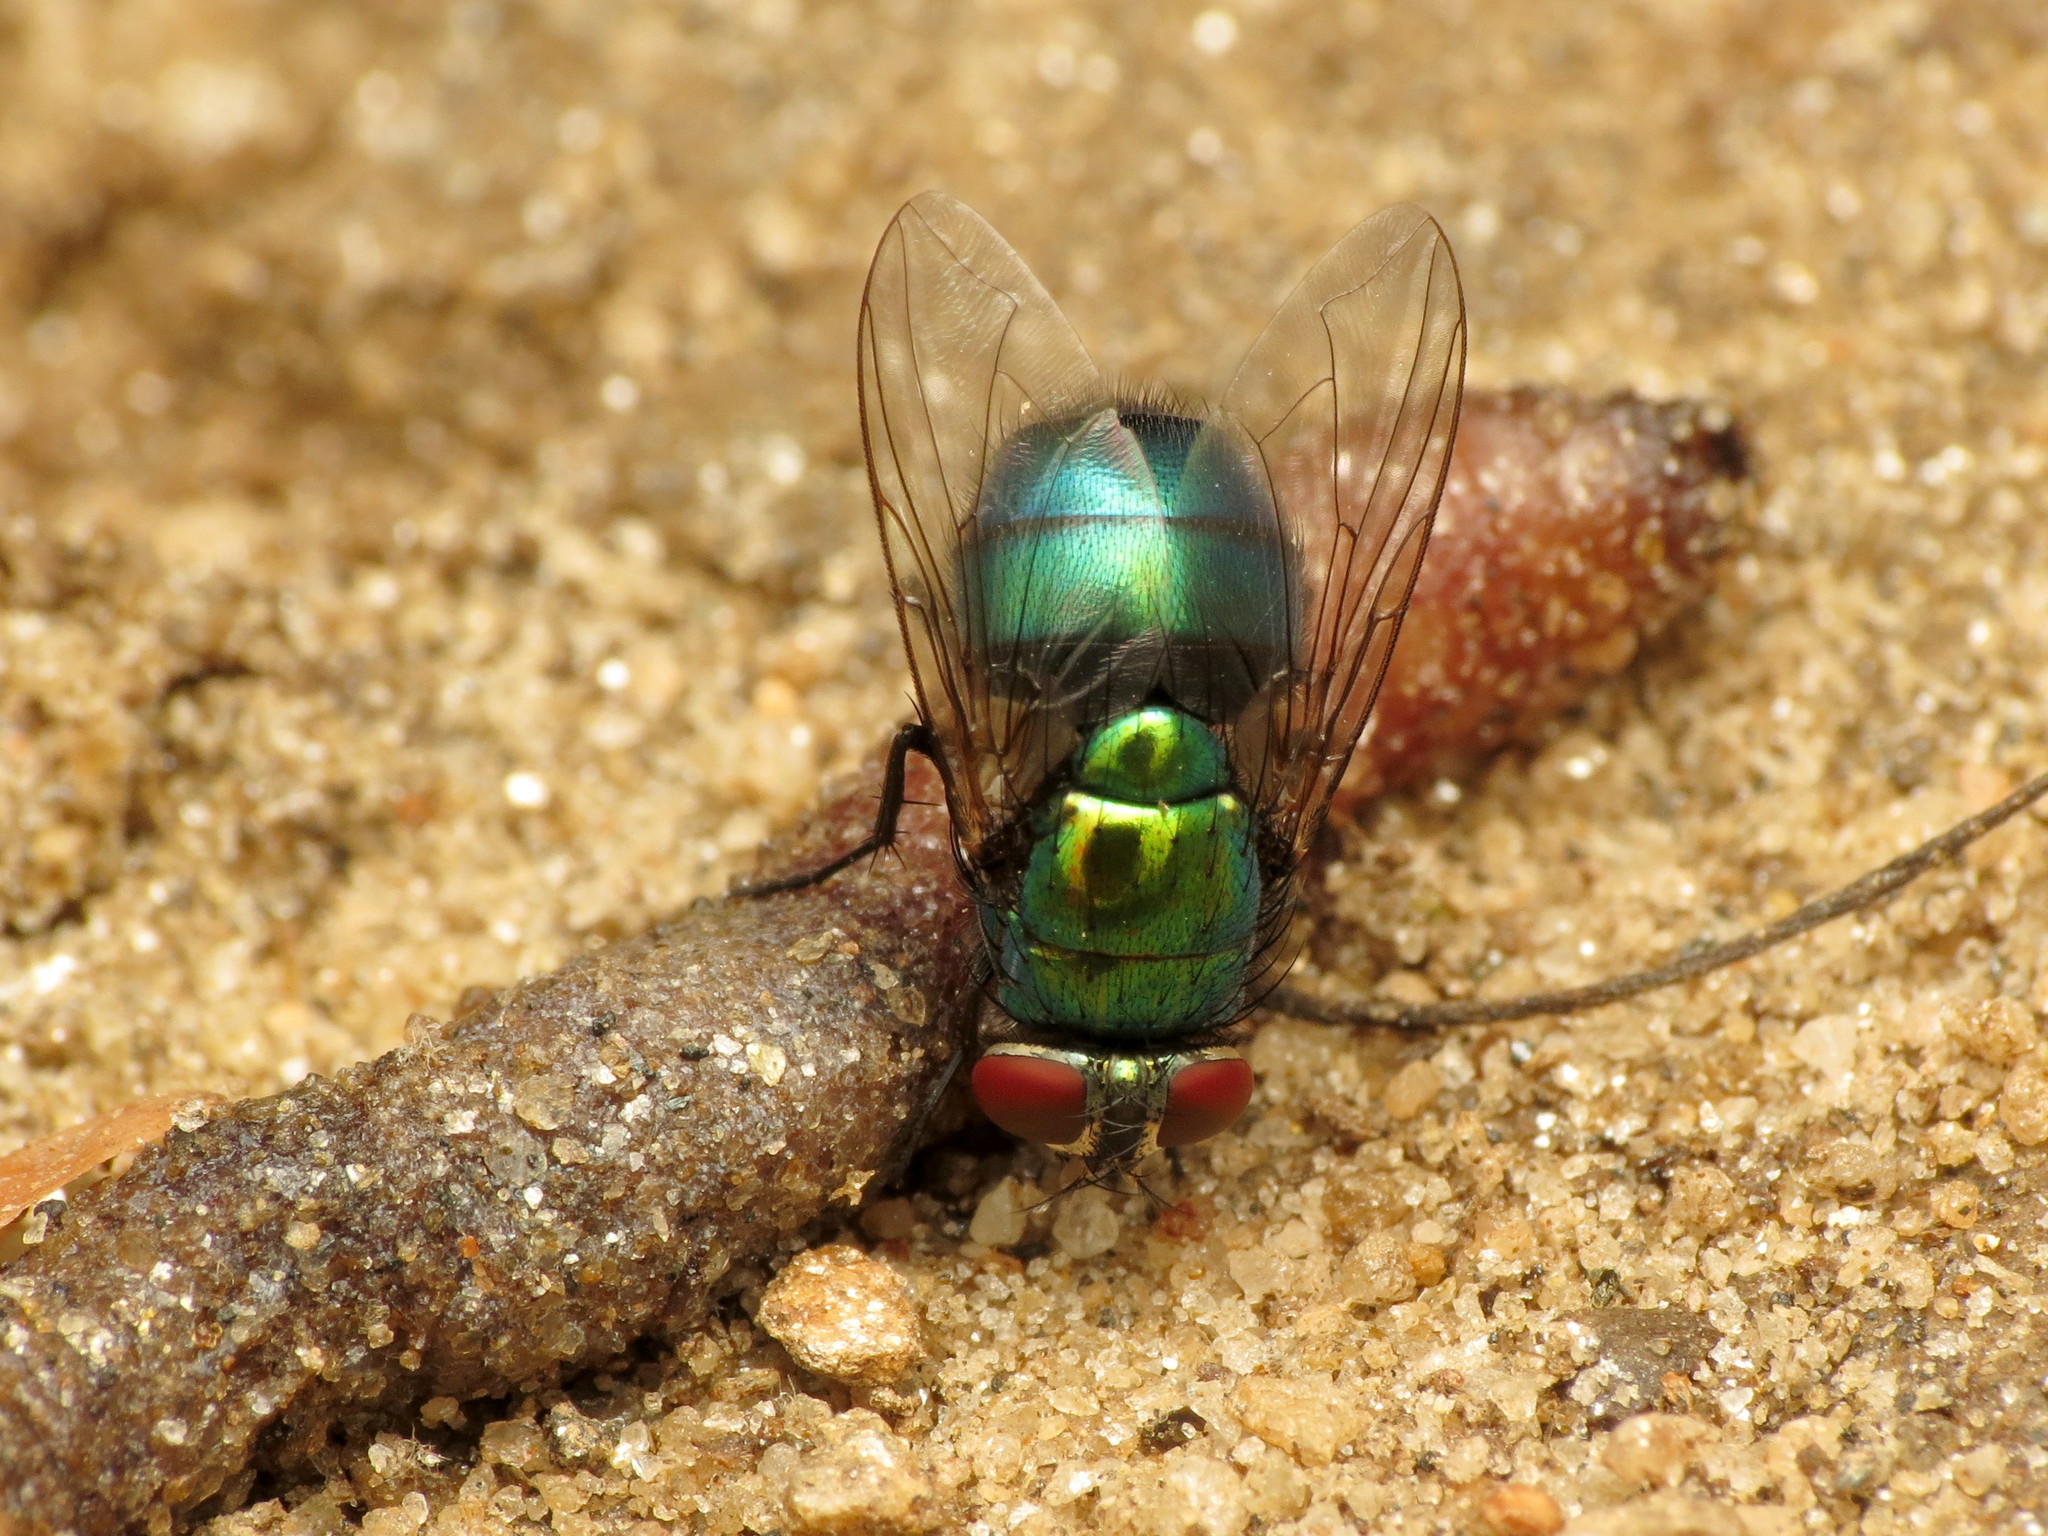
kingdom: Animalia
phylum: Arthropoda
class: Insecta
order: Diptera
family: Calliphoridae
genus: Lucilia
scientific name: Lucilia caeruleiviridis
